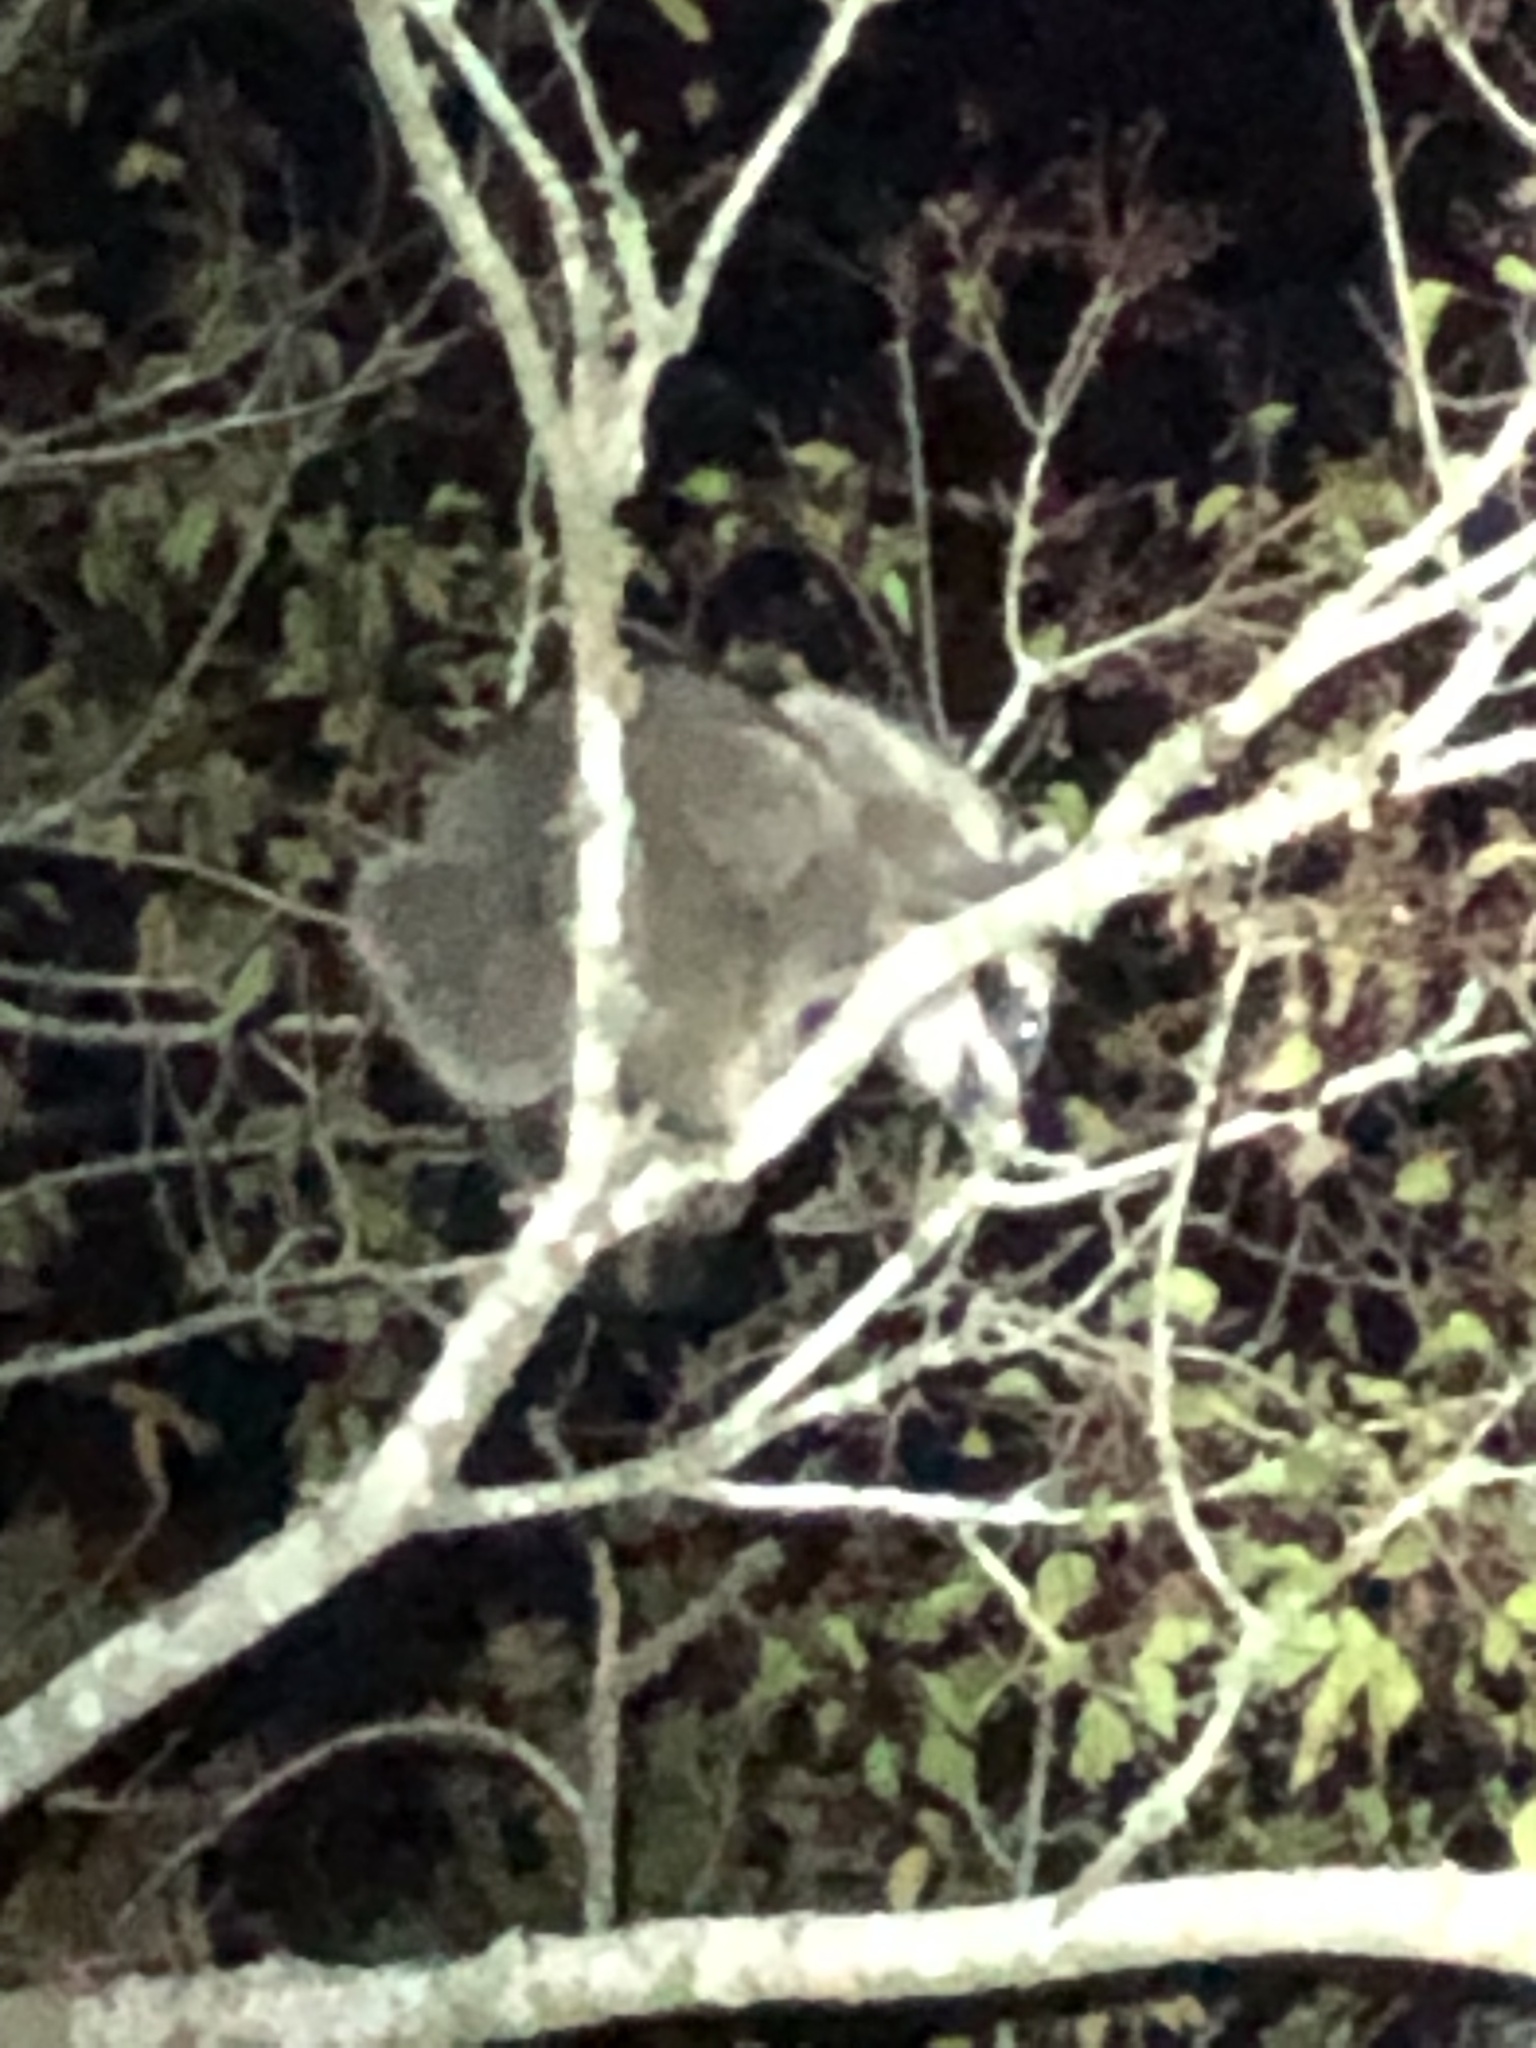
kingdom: Animalia
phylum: Chordata
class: Mammalia
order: Carnivora
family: Procyonidae
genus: Procyon
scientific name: Procyon lotor
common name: Raccoon
